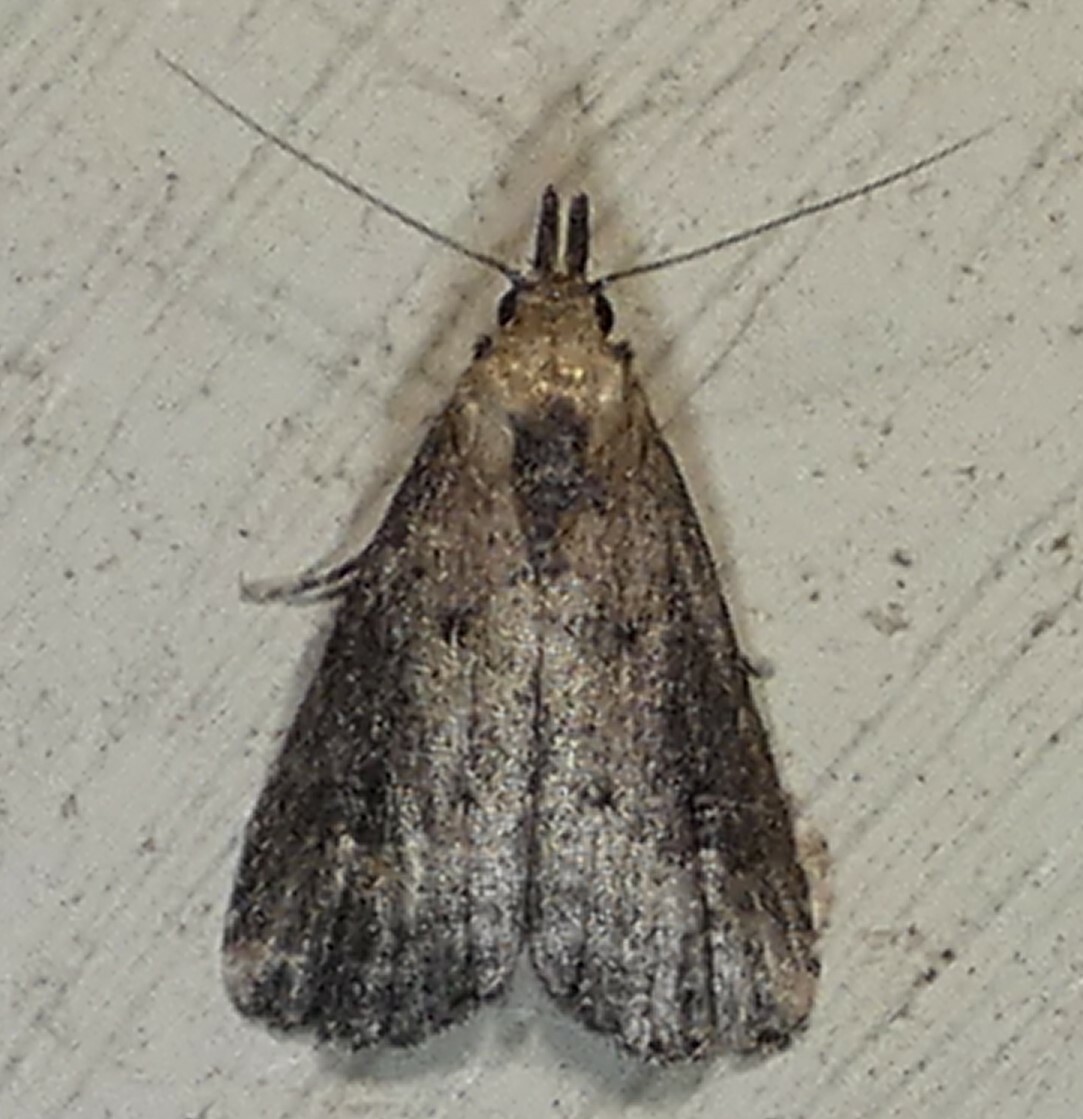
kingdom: Animalia
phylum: Arthropoda
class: Insecta
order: Lepidoptera
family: Erebidae
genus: Schrankia
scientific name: Schrankia
